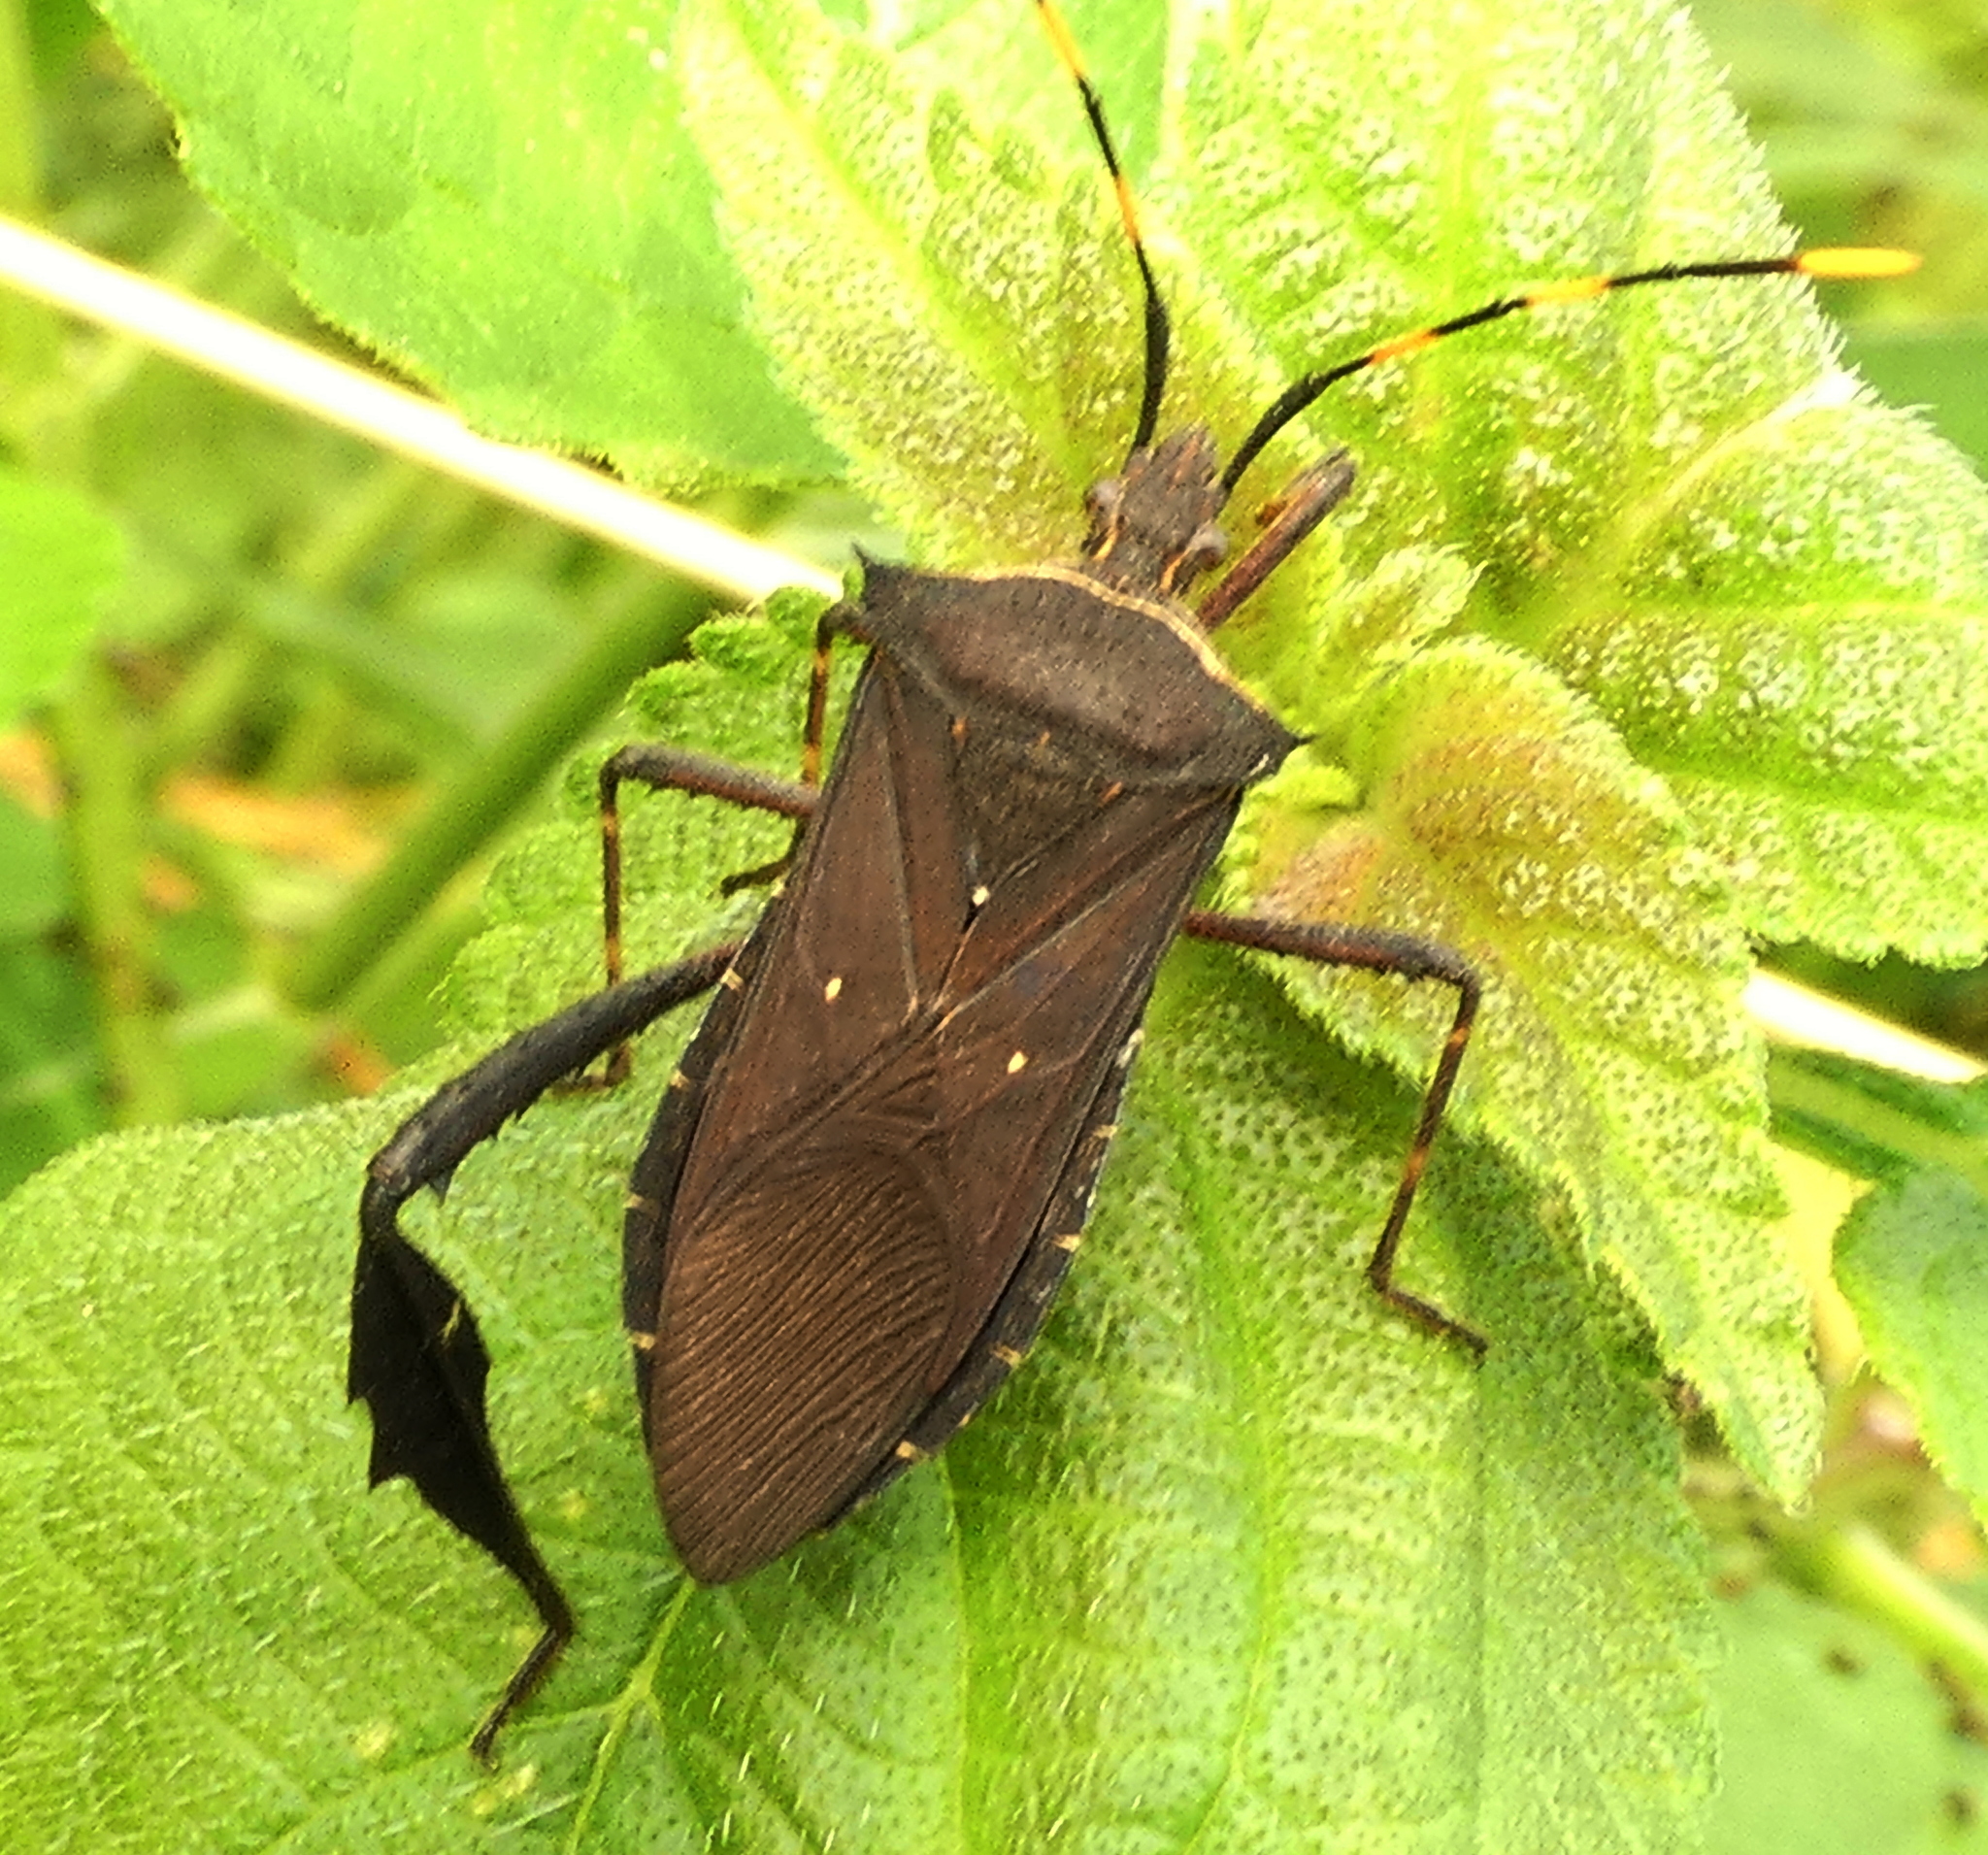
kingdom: Animalia
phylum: Arthropoda
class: Insecta
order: Hemiptera
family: Coreidae
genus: Leptoglossus
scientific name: Leptoglossus gonagra
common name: Citron bug
